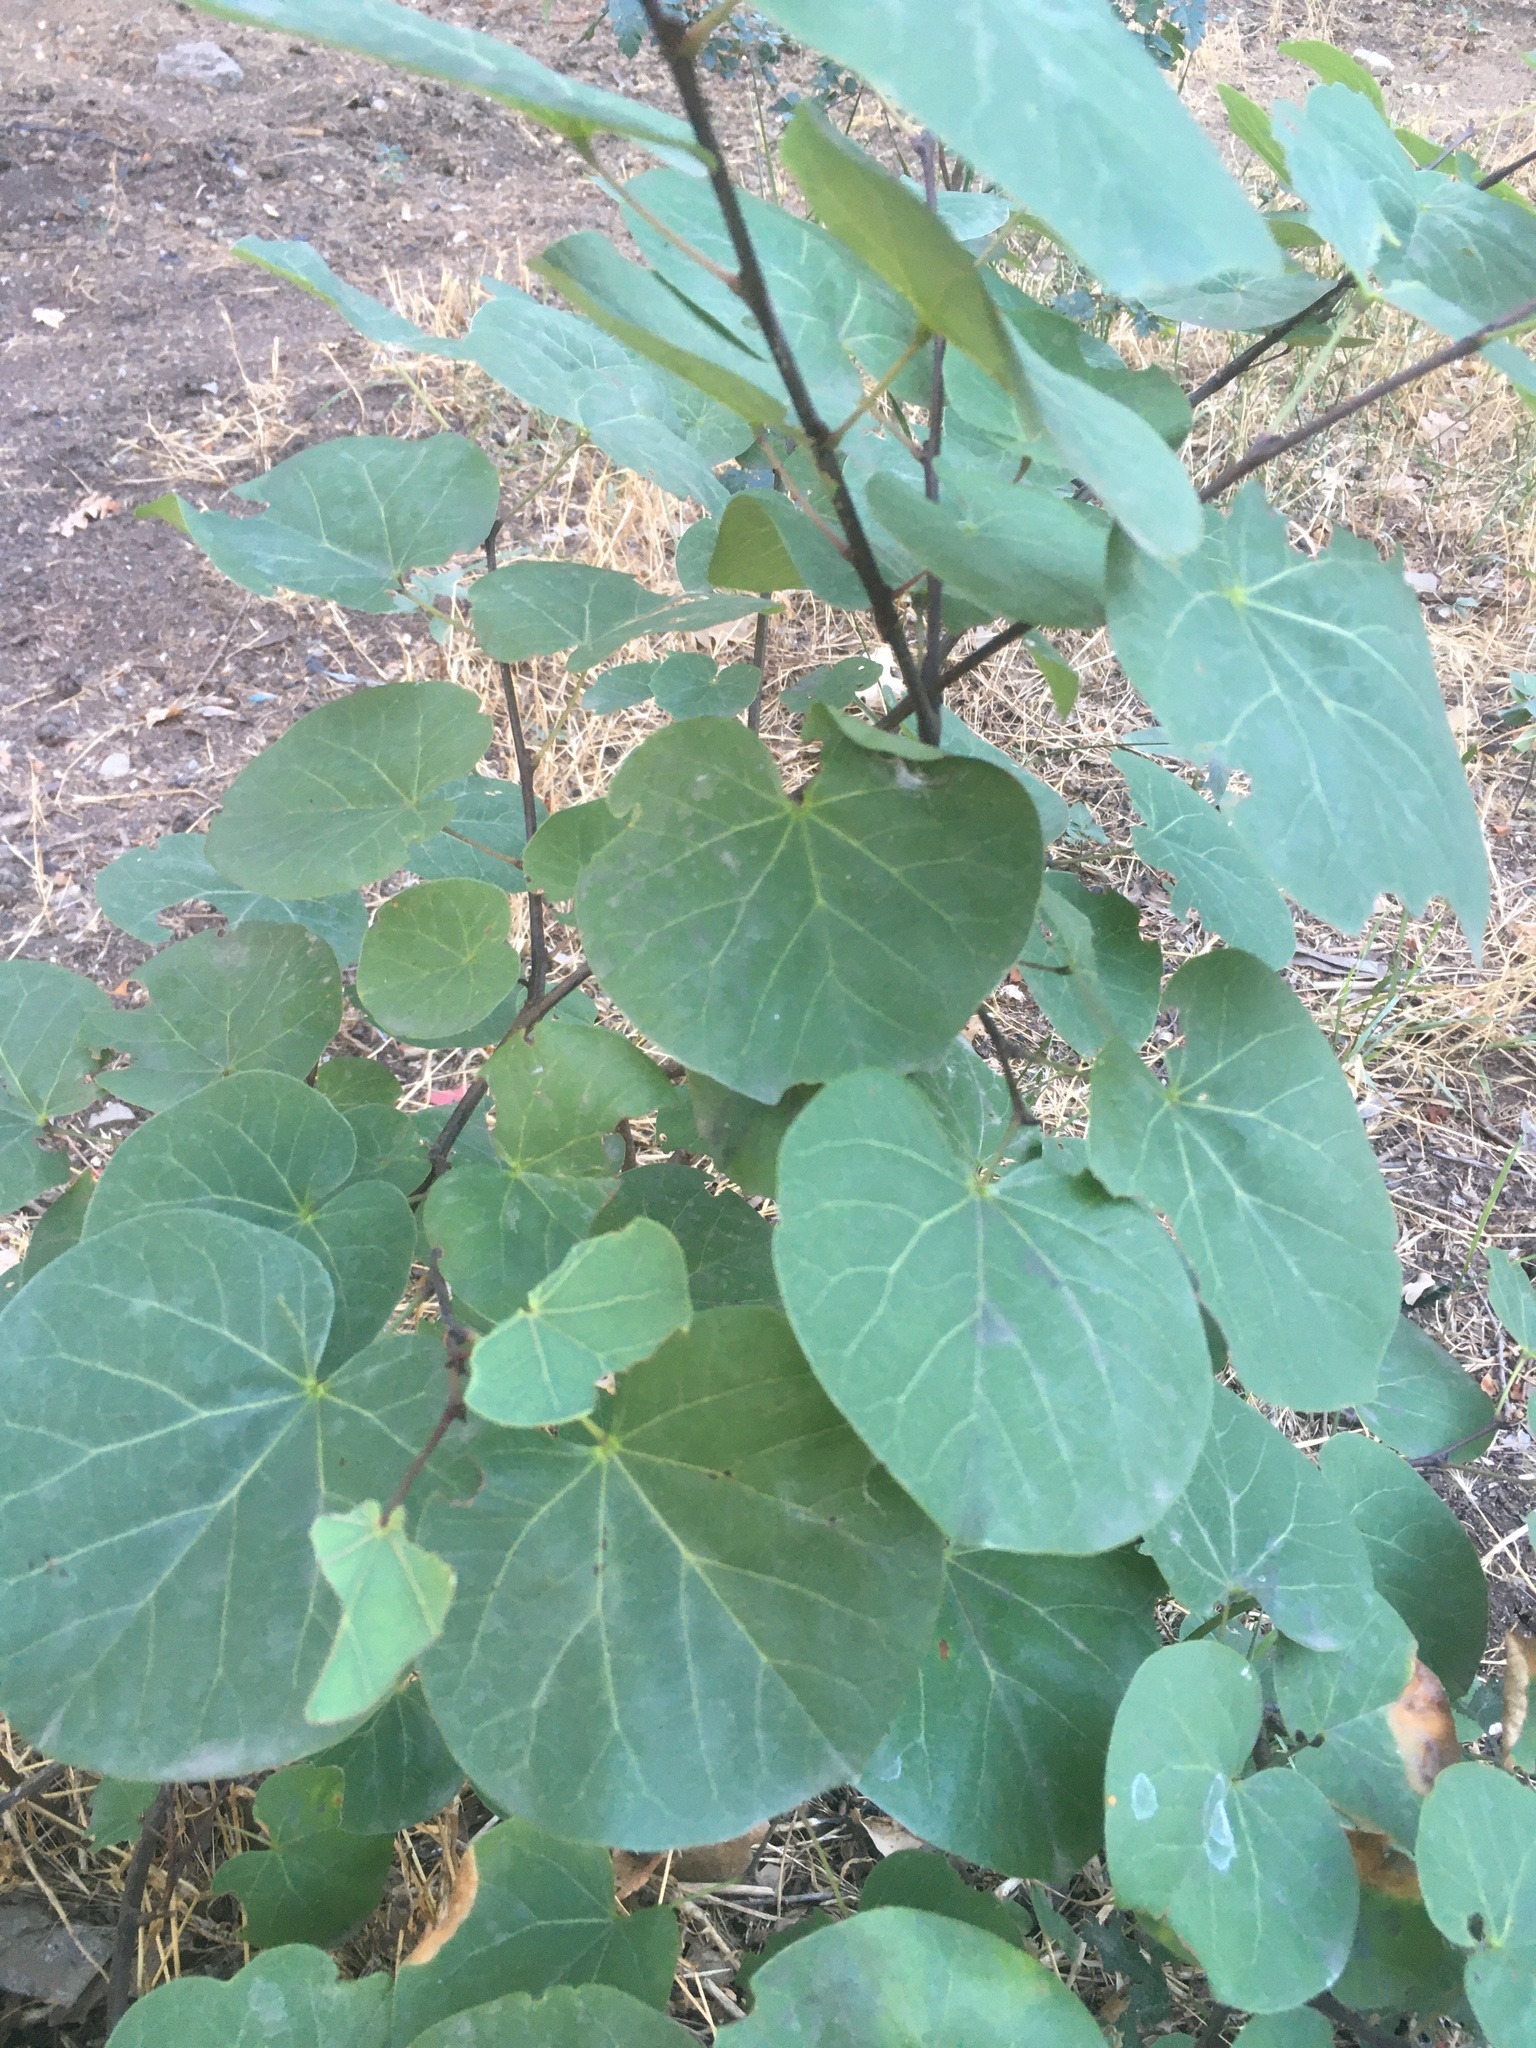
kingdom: Plantae
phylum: Tracheophyta
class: Magnoliopsida
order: Fabales
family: Fabaceae
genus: Cercis
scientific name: Cercis siliquastrum
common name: Judas tree
